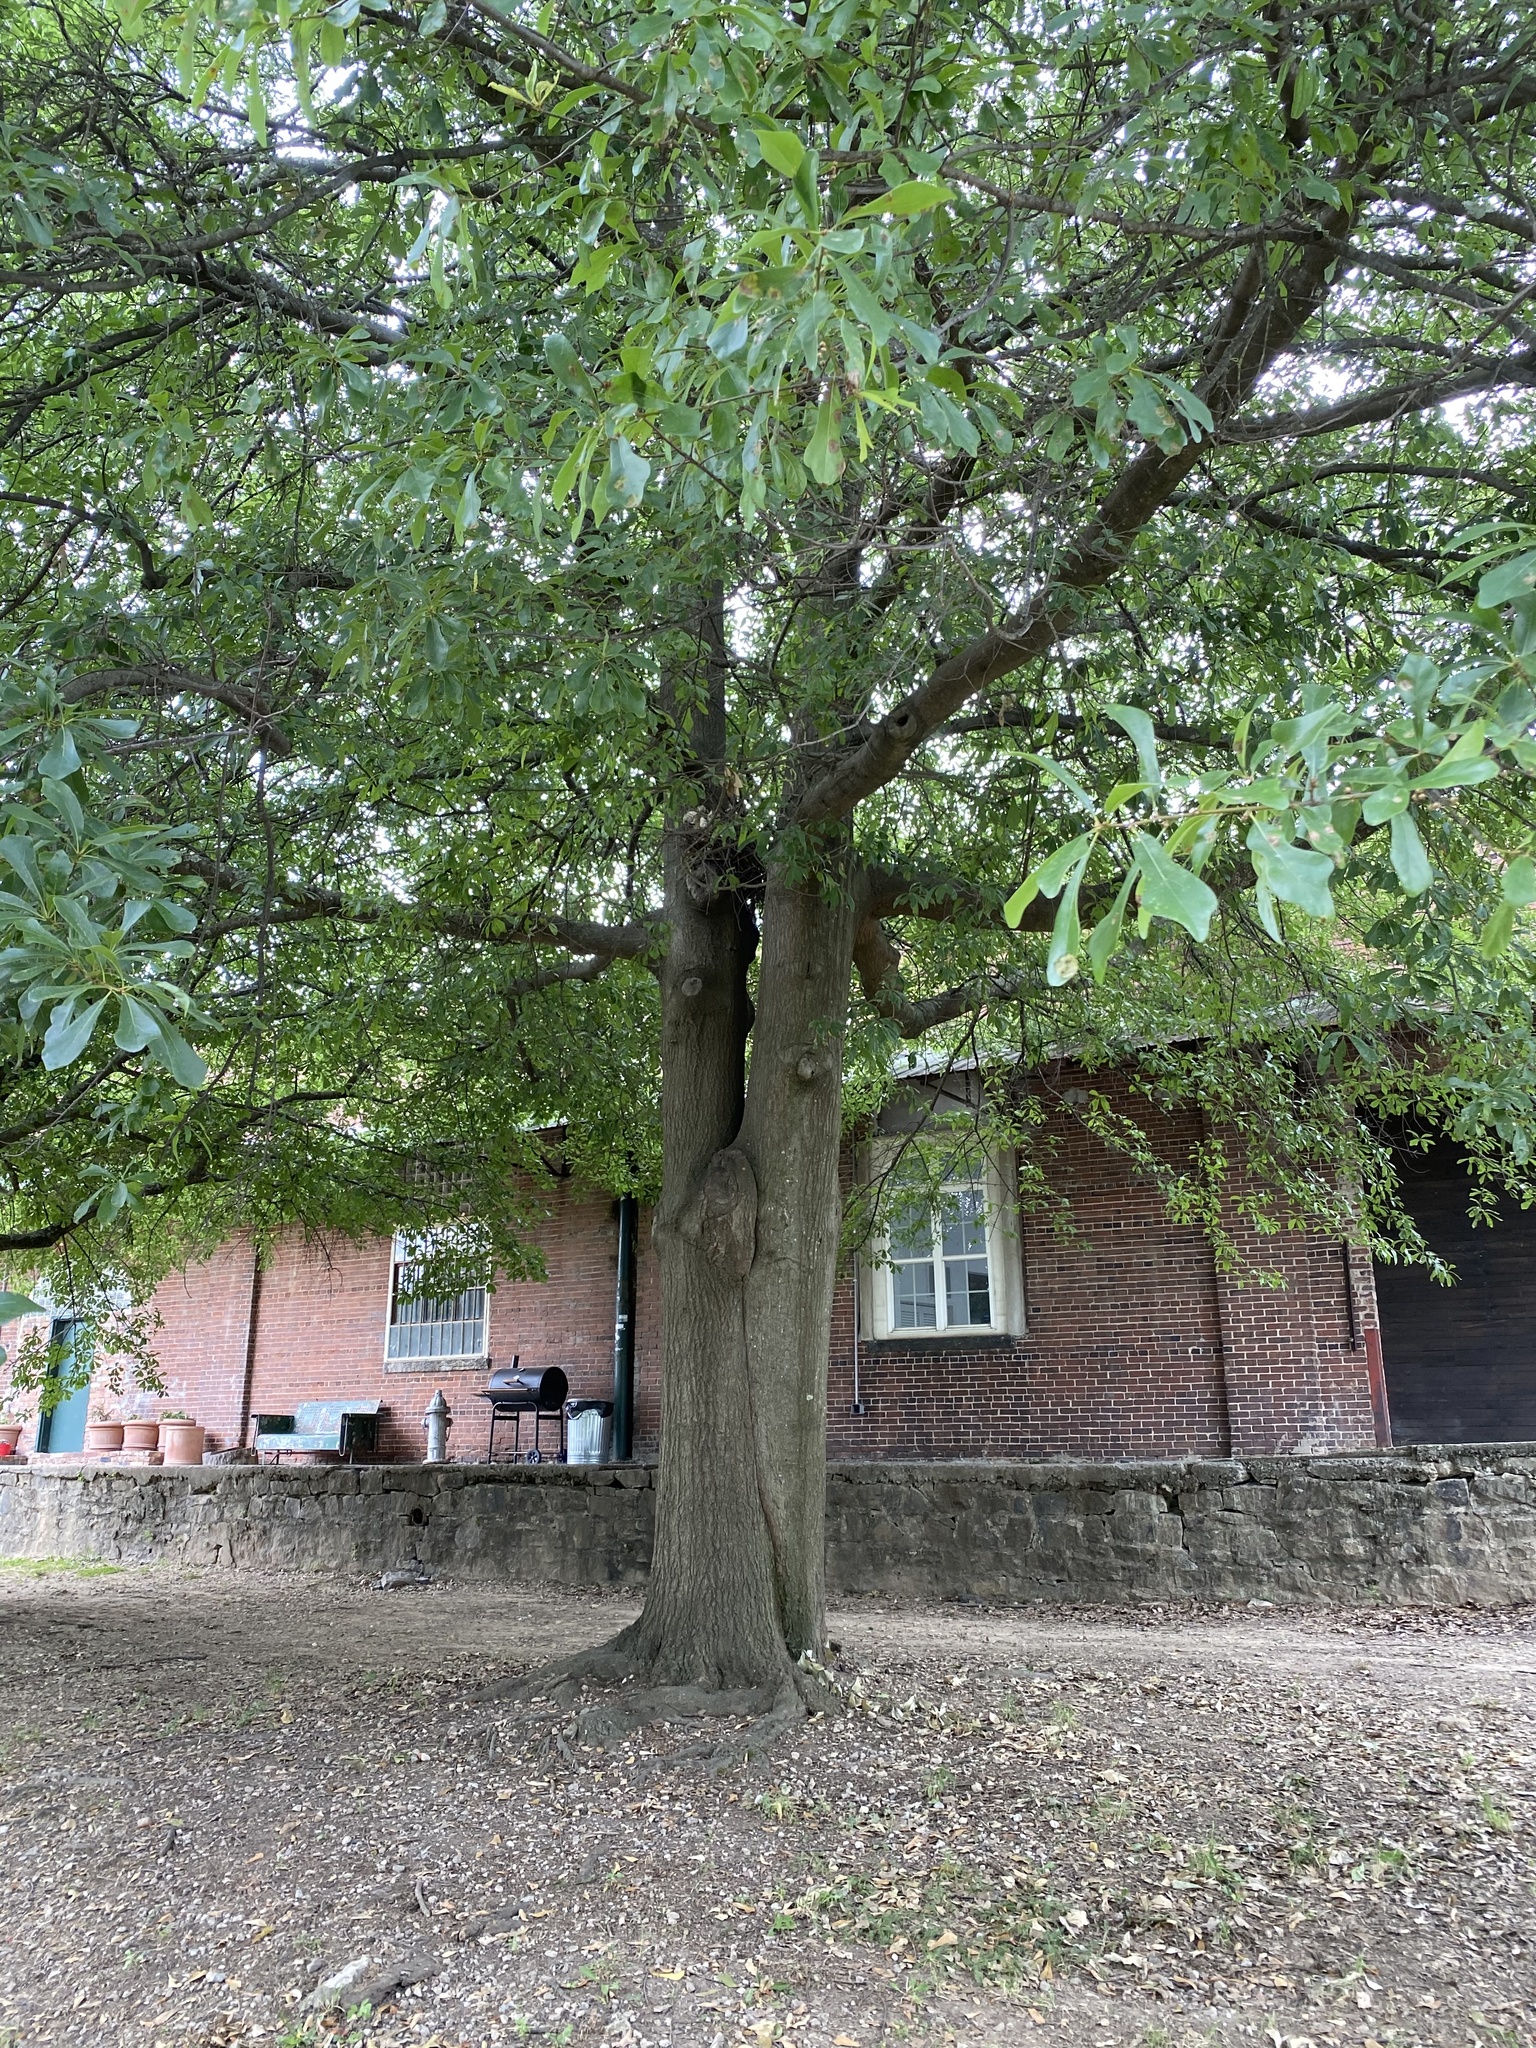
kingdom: Plantae
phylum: Tracheophyta
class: Magnoliopsida
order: Fagales
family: Fagaceae
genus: Quercus
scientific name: Quercus nigra
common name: Water oak
